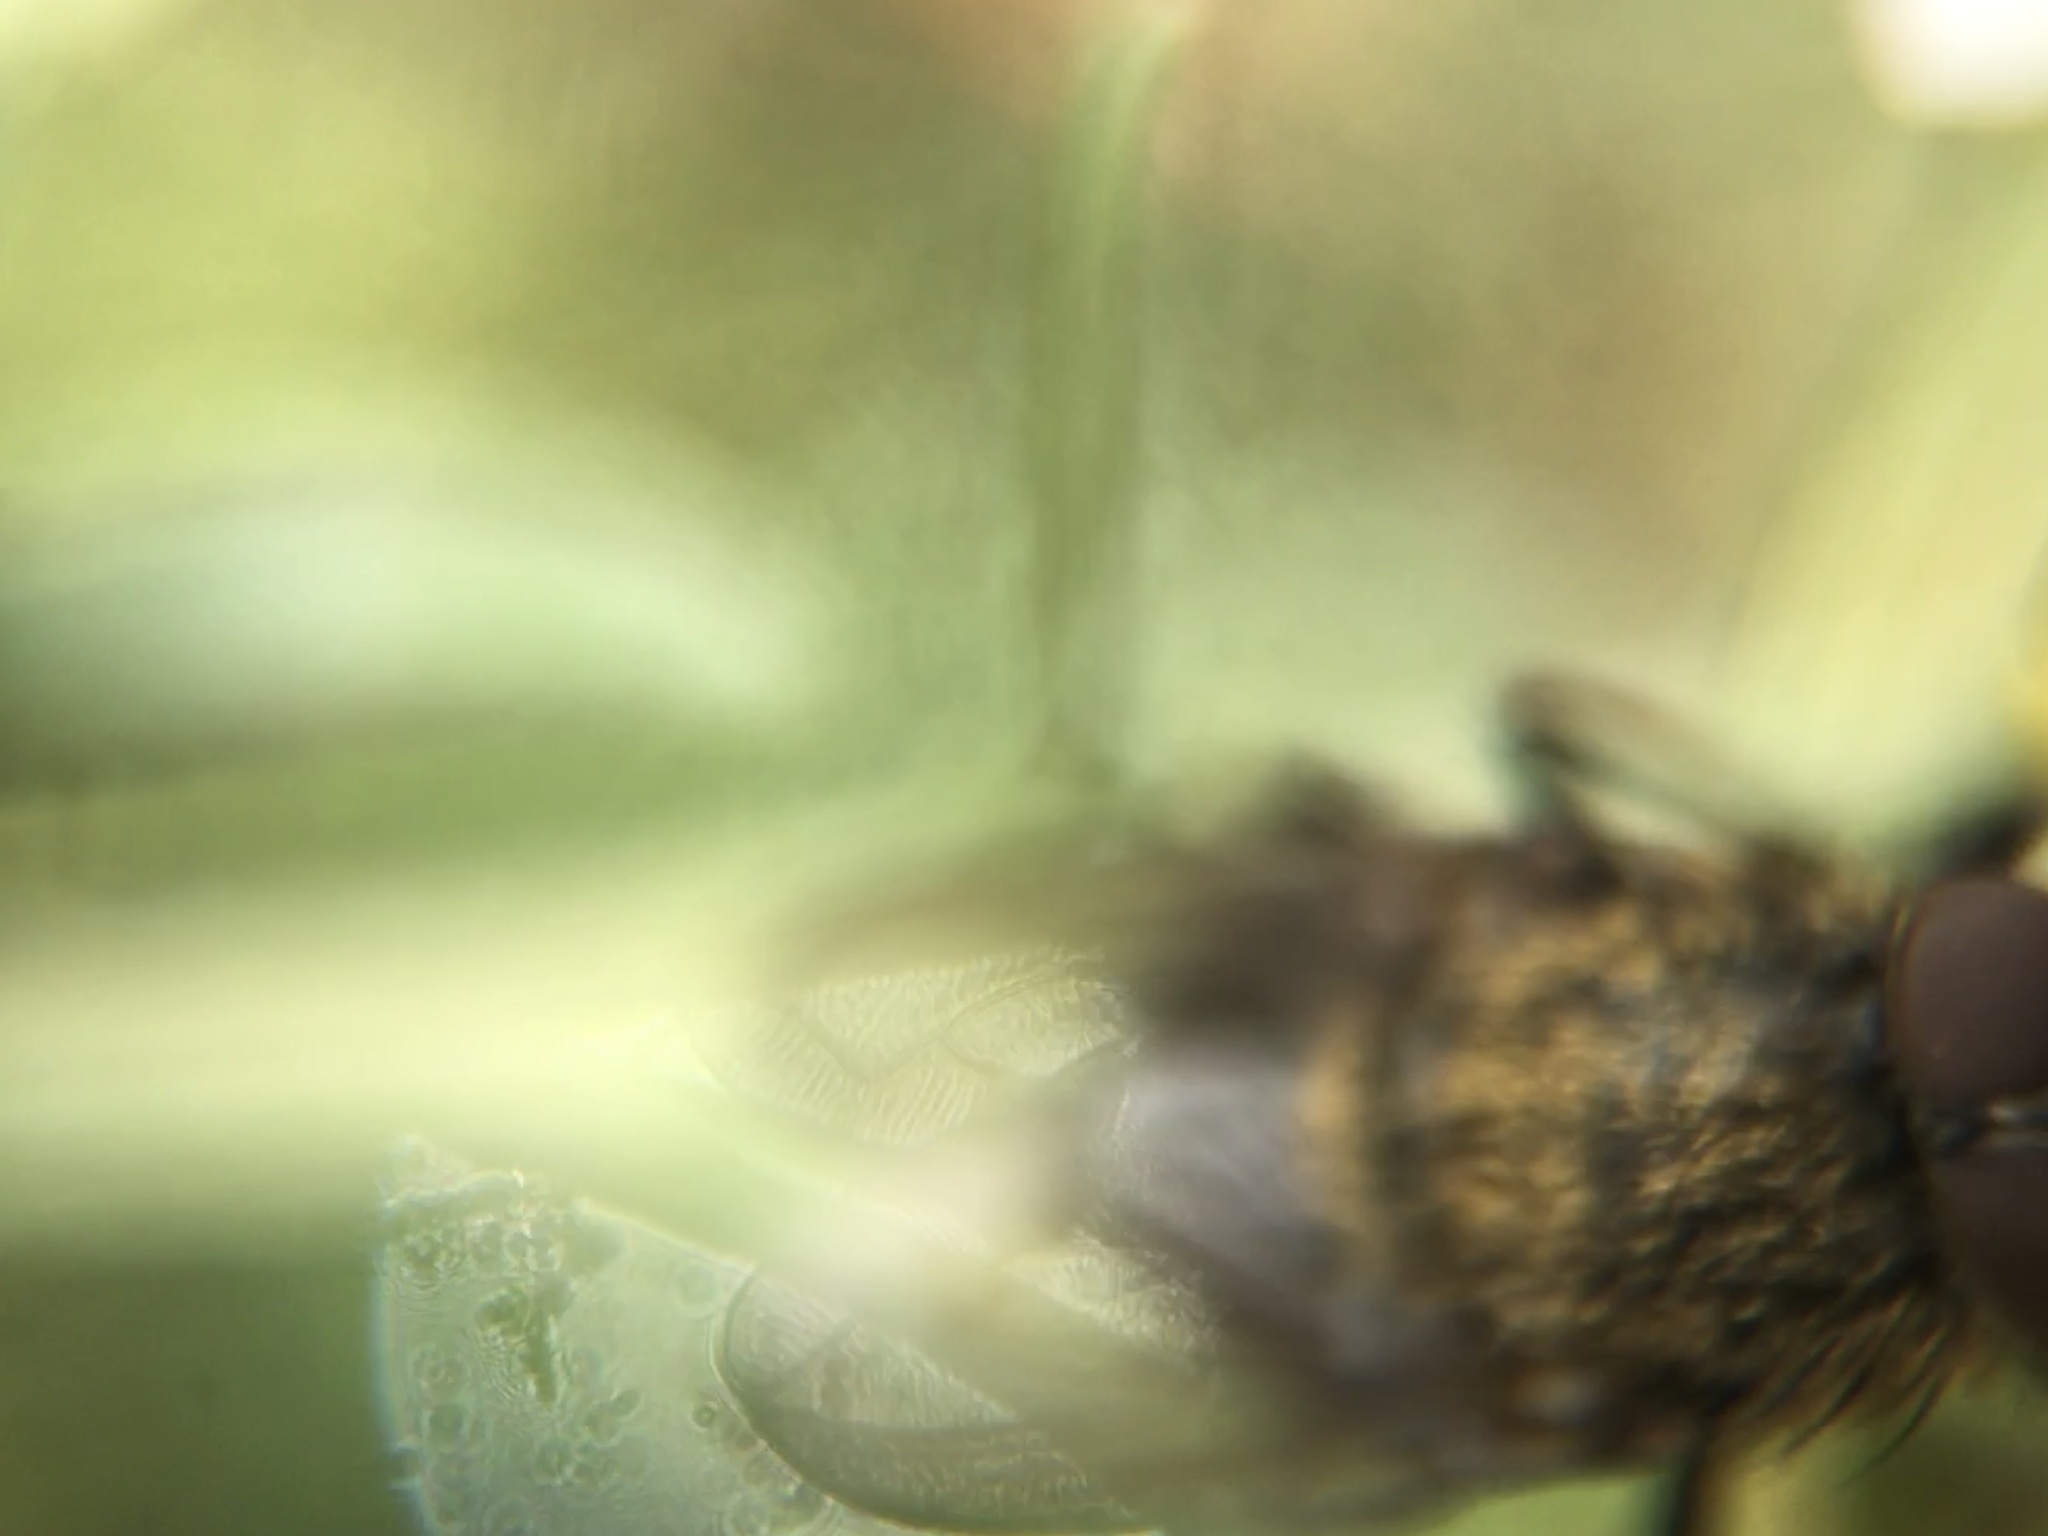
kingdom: Animalia
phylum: Arthropoda
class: Insecta
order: Diptera
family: Polleniidae
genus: Pollenia
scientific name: Pollenia
